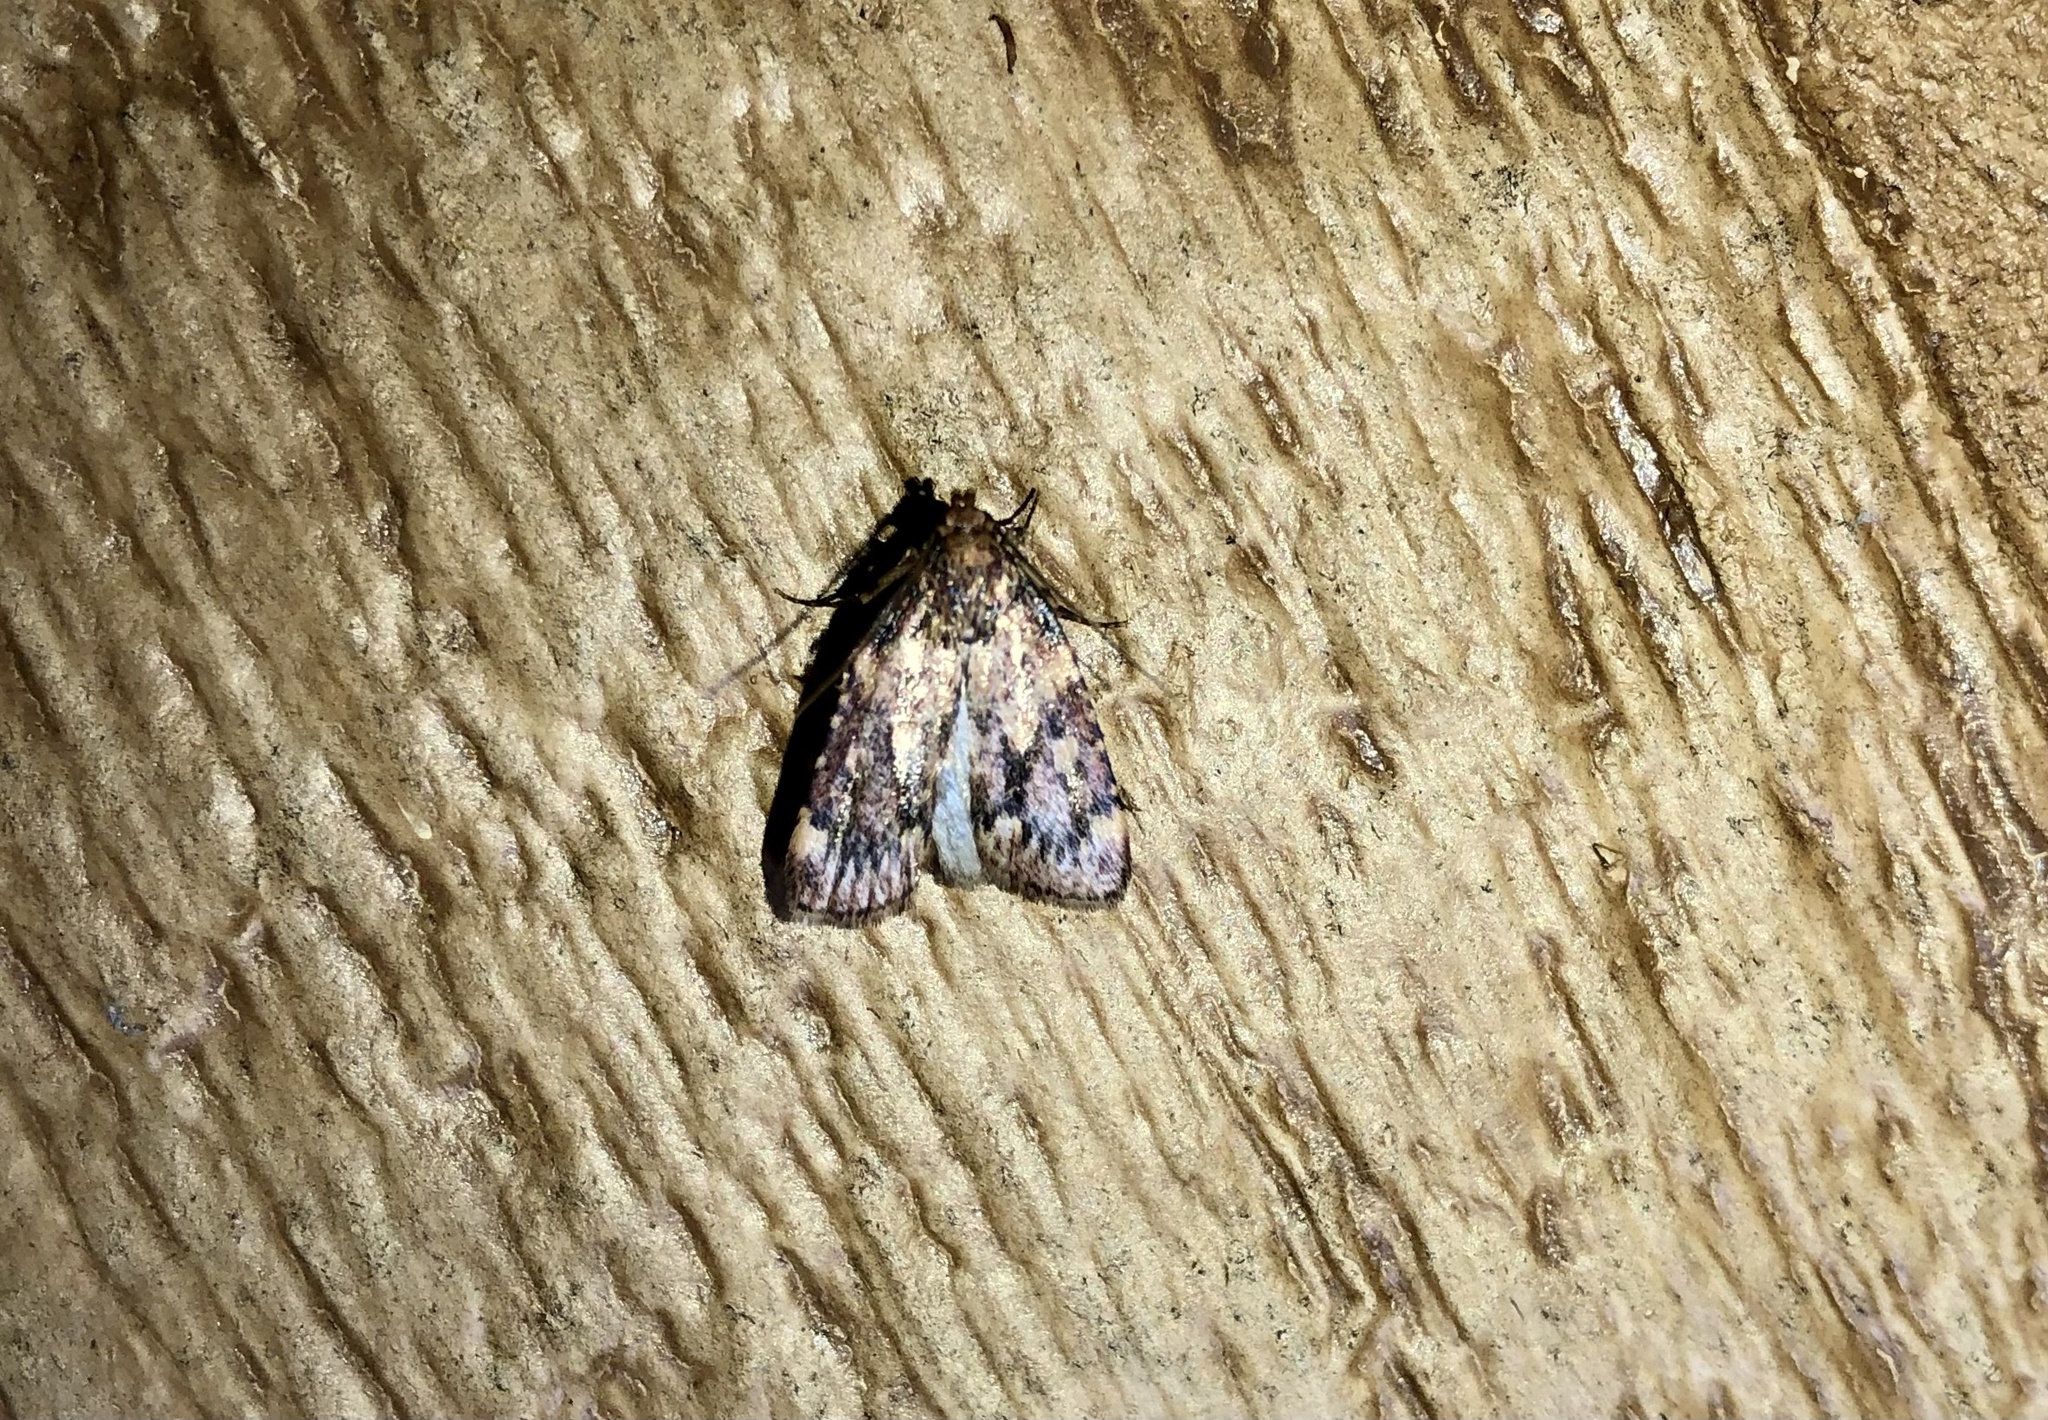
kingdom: Animalia
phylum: Arthropoda
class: Insecta
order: Lepidoptera
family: Pyralidae
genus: Aglossa
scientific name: Aglossa cuprina
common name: Grease moth
